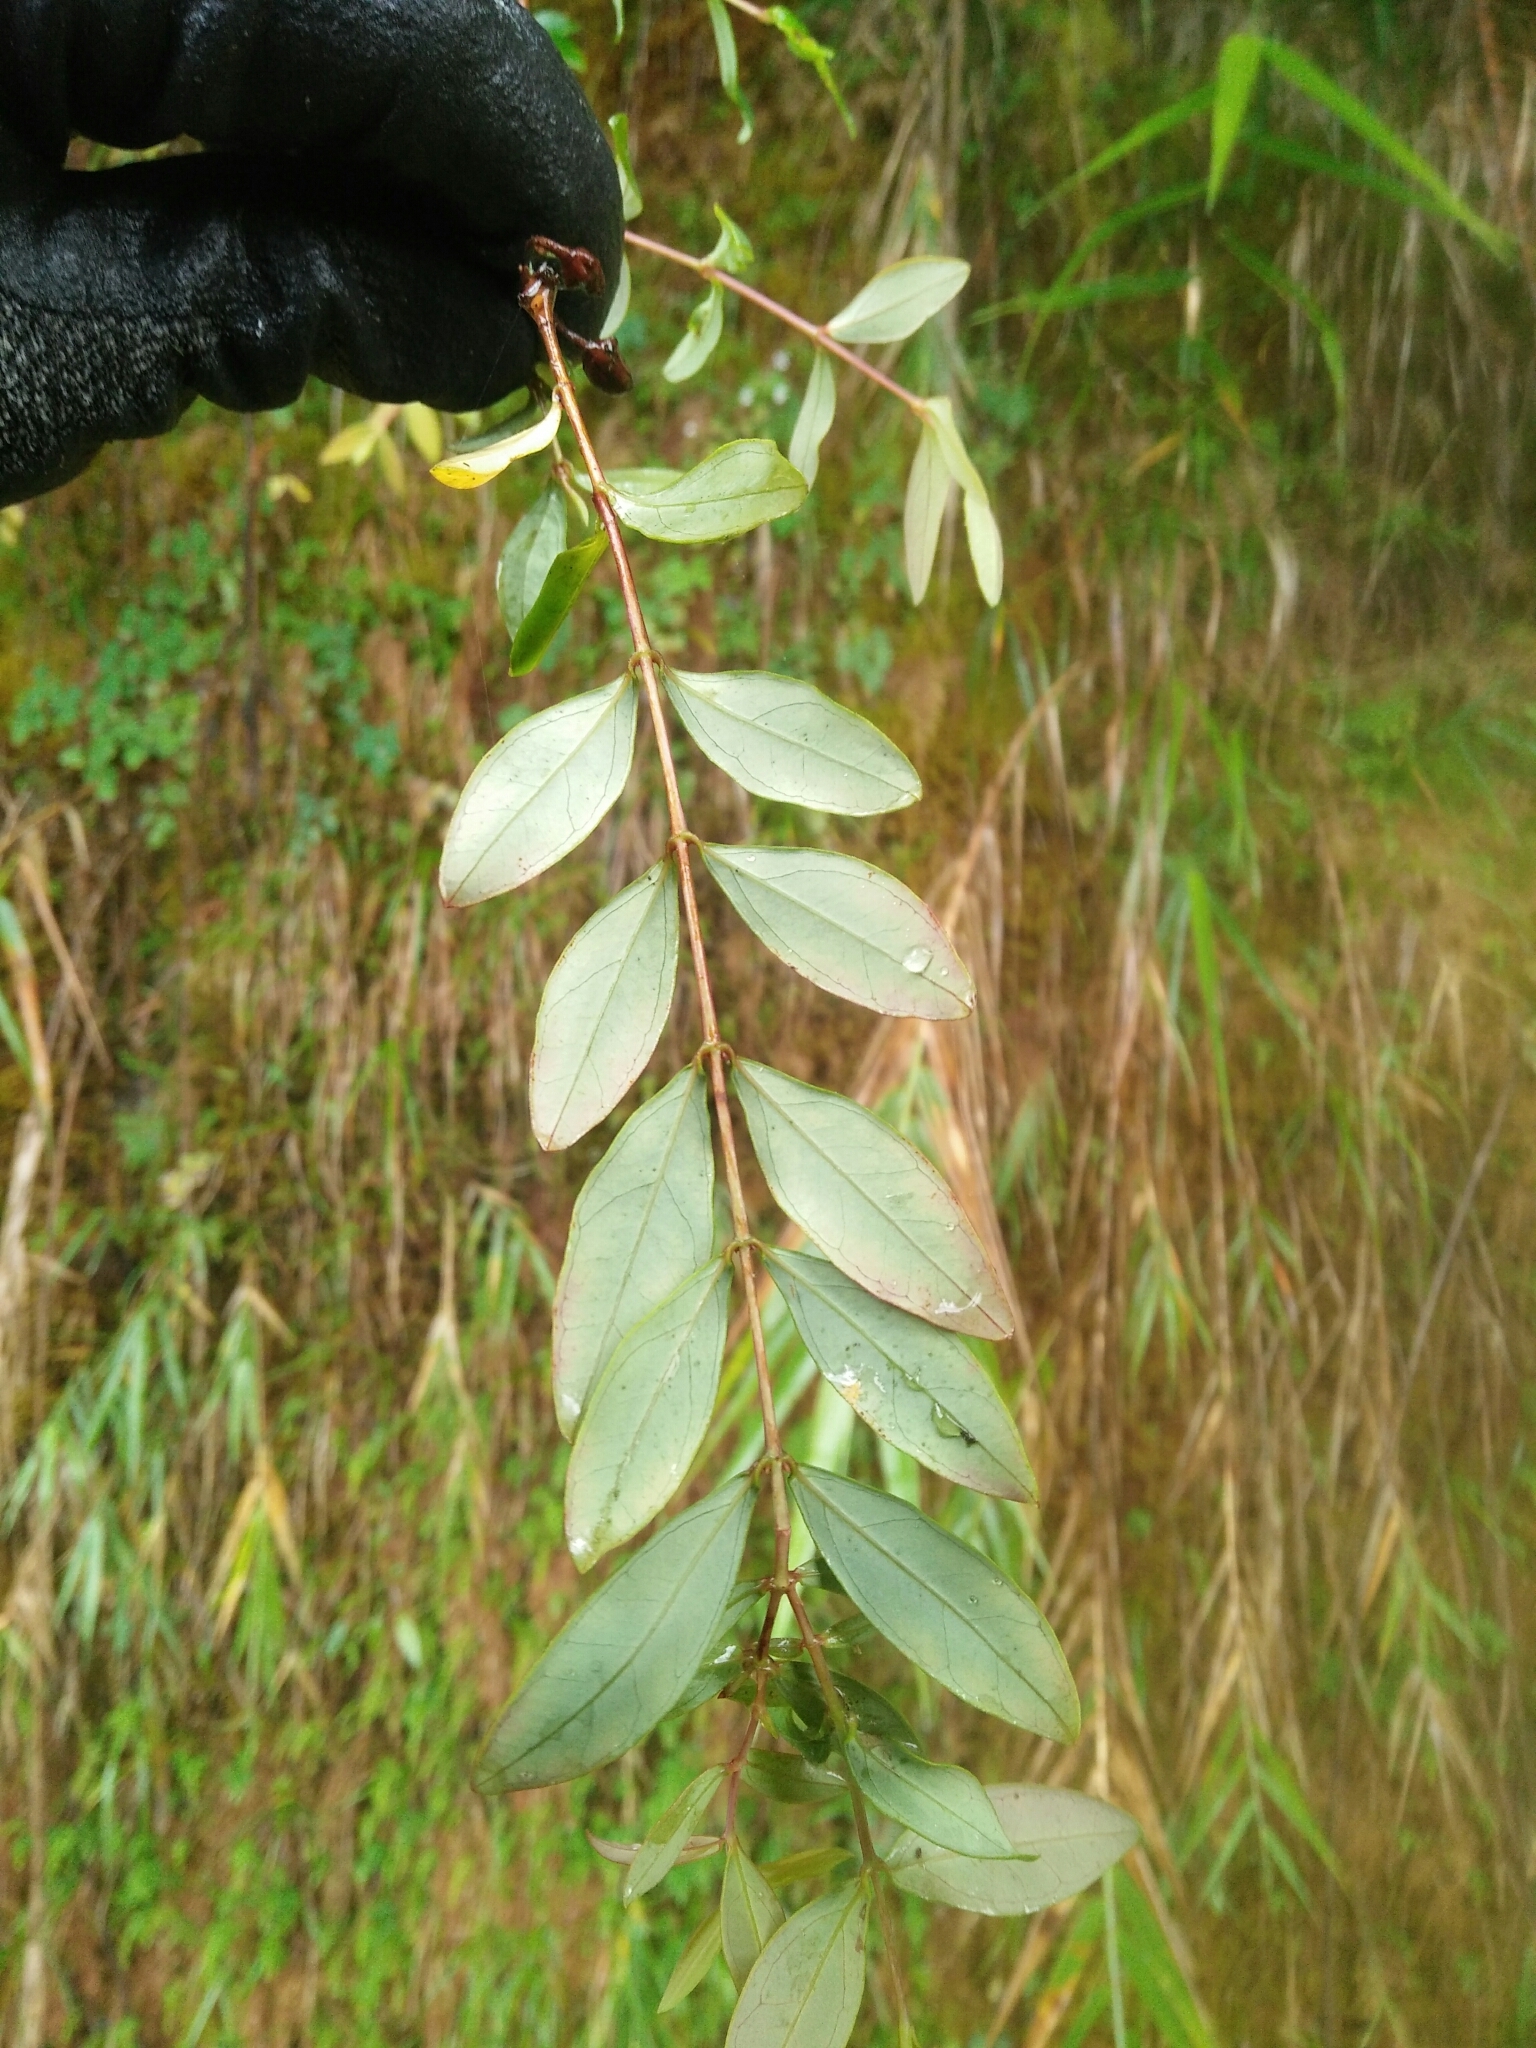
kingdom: Plantae
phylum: Tracheophyta
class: Magnoliopsida
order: Malpighiales
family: Hypericaceae
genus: Hypericum
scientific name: Hypericum geminiflorum
